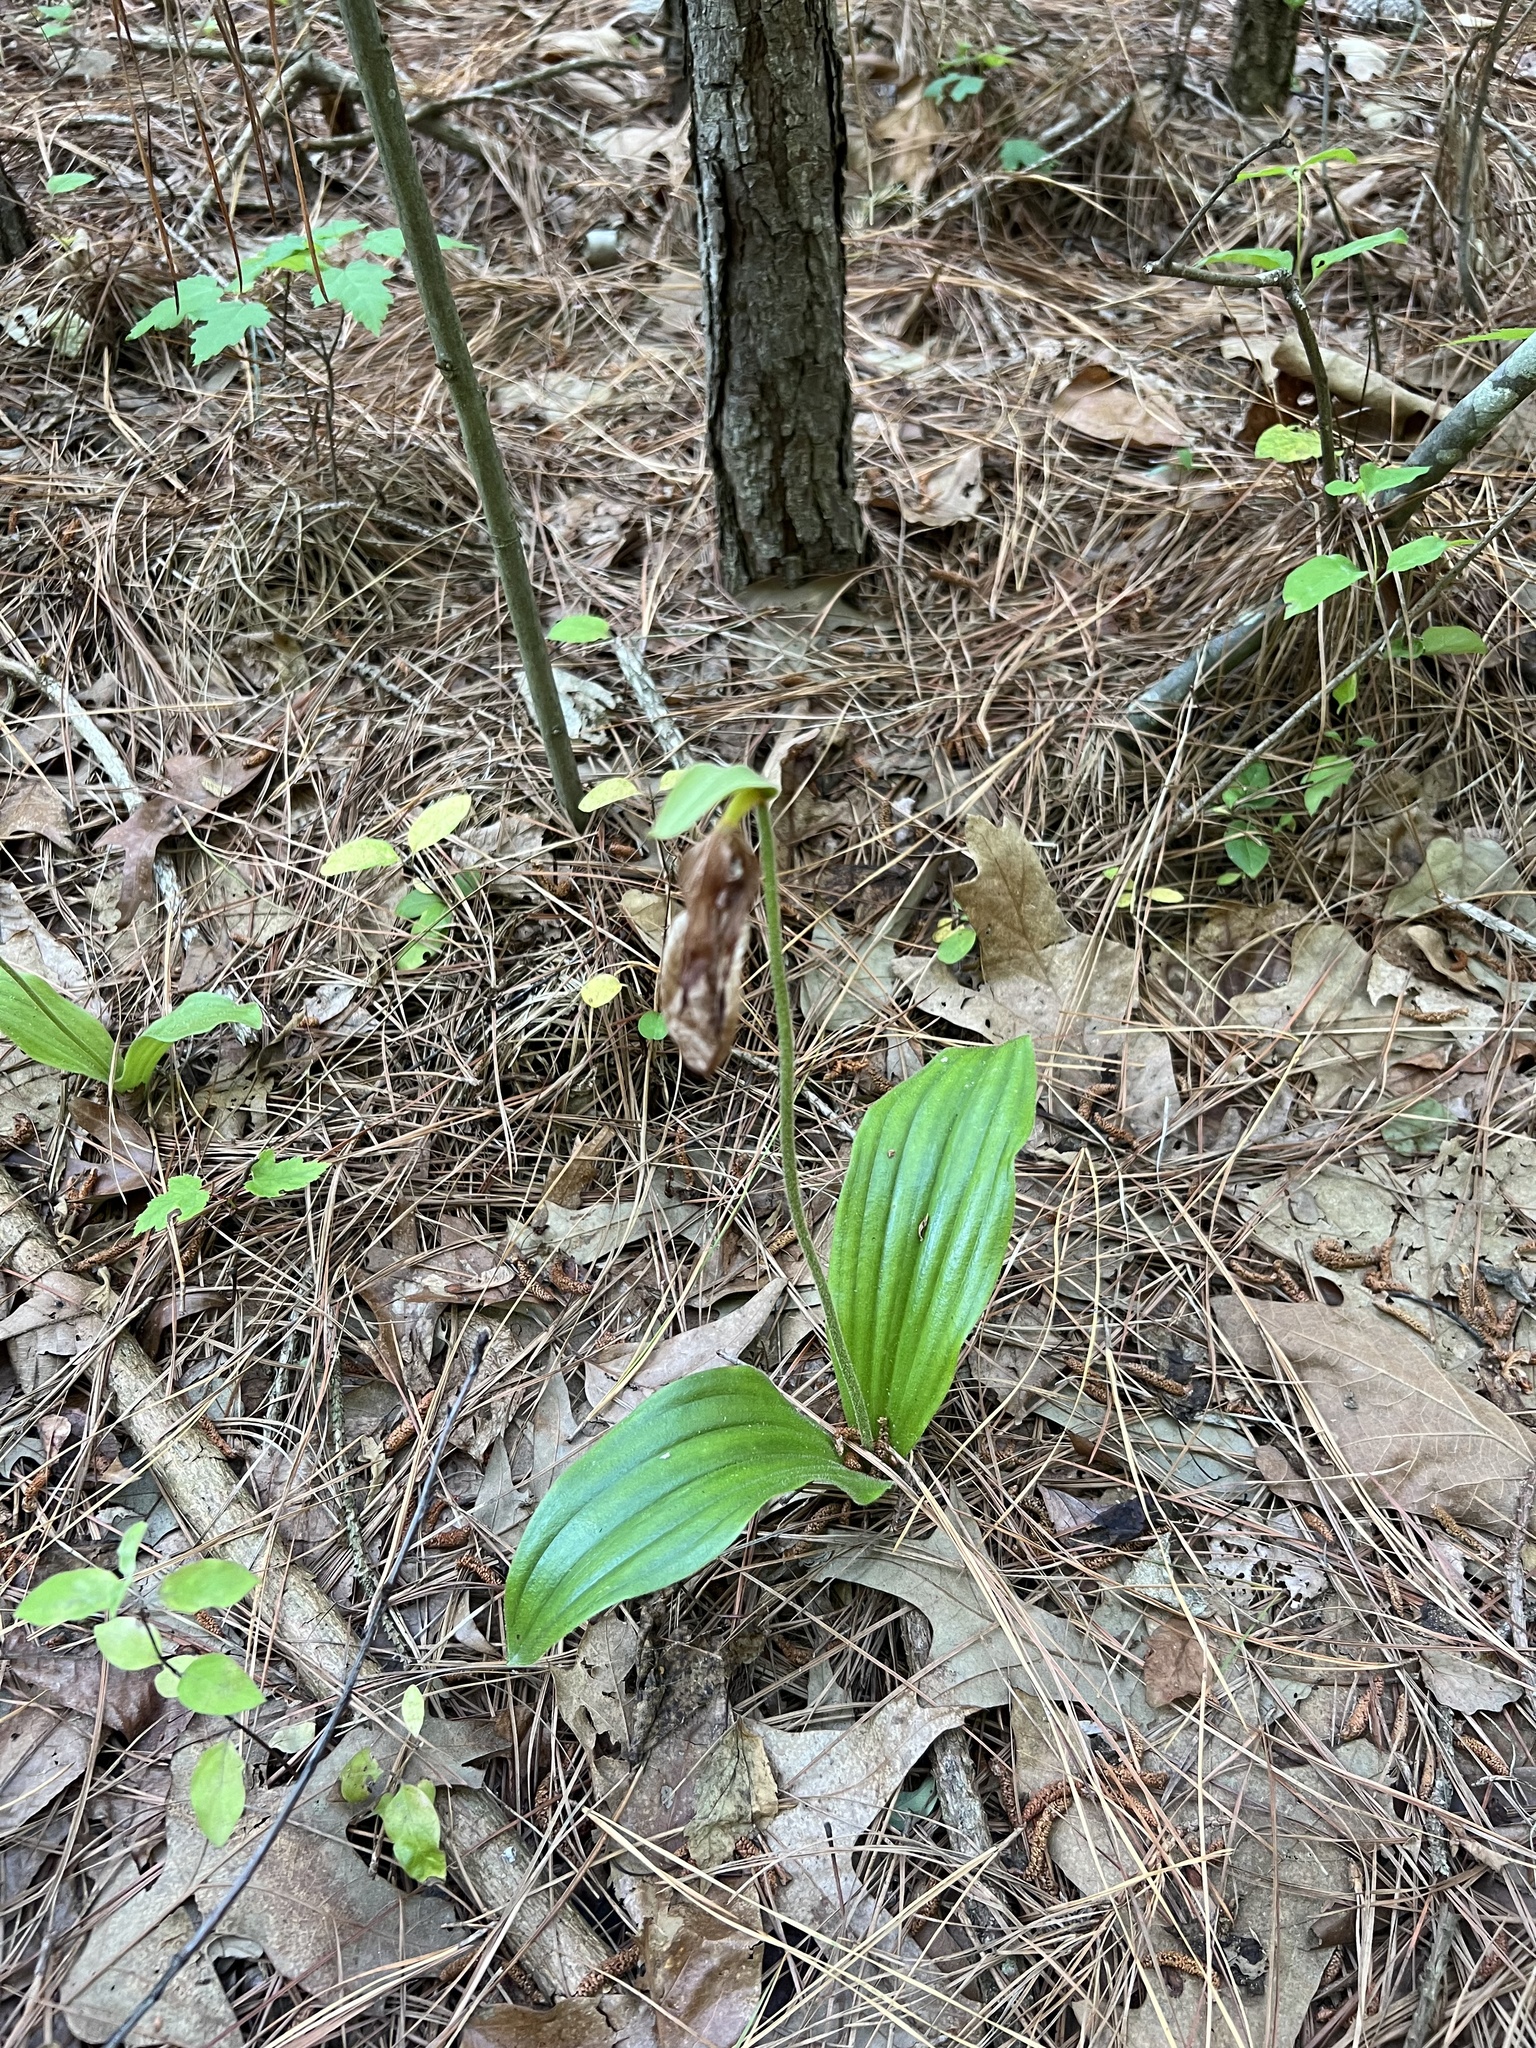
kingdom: Plantae
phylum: Tracheophyta
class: Liliopsida
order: Asparagales
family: Orchidaceae
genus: Cypripedium
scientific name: Cypripedium acaule
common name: Pink lady's-slipper
